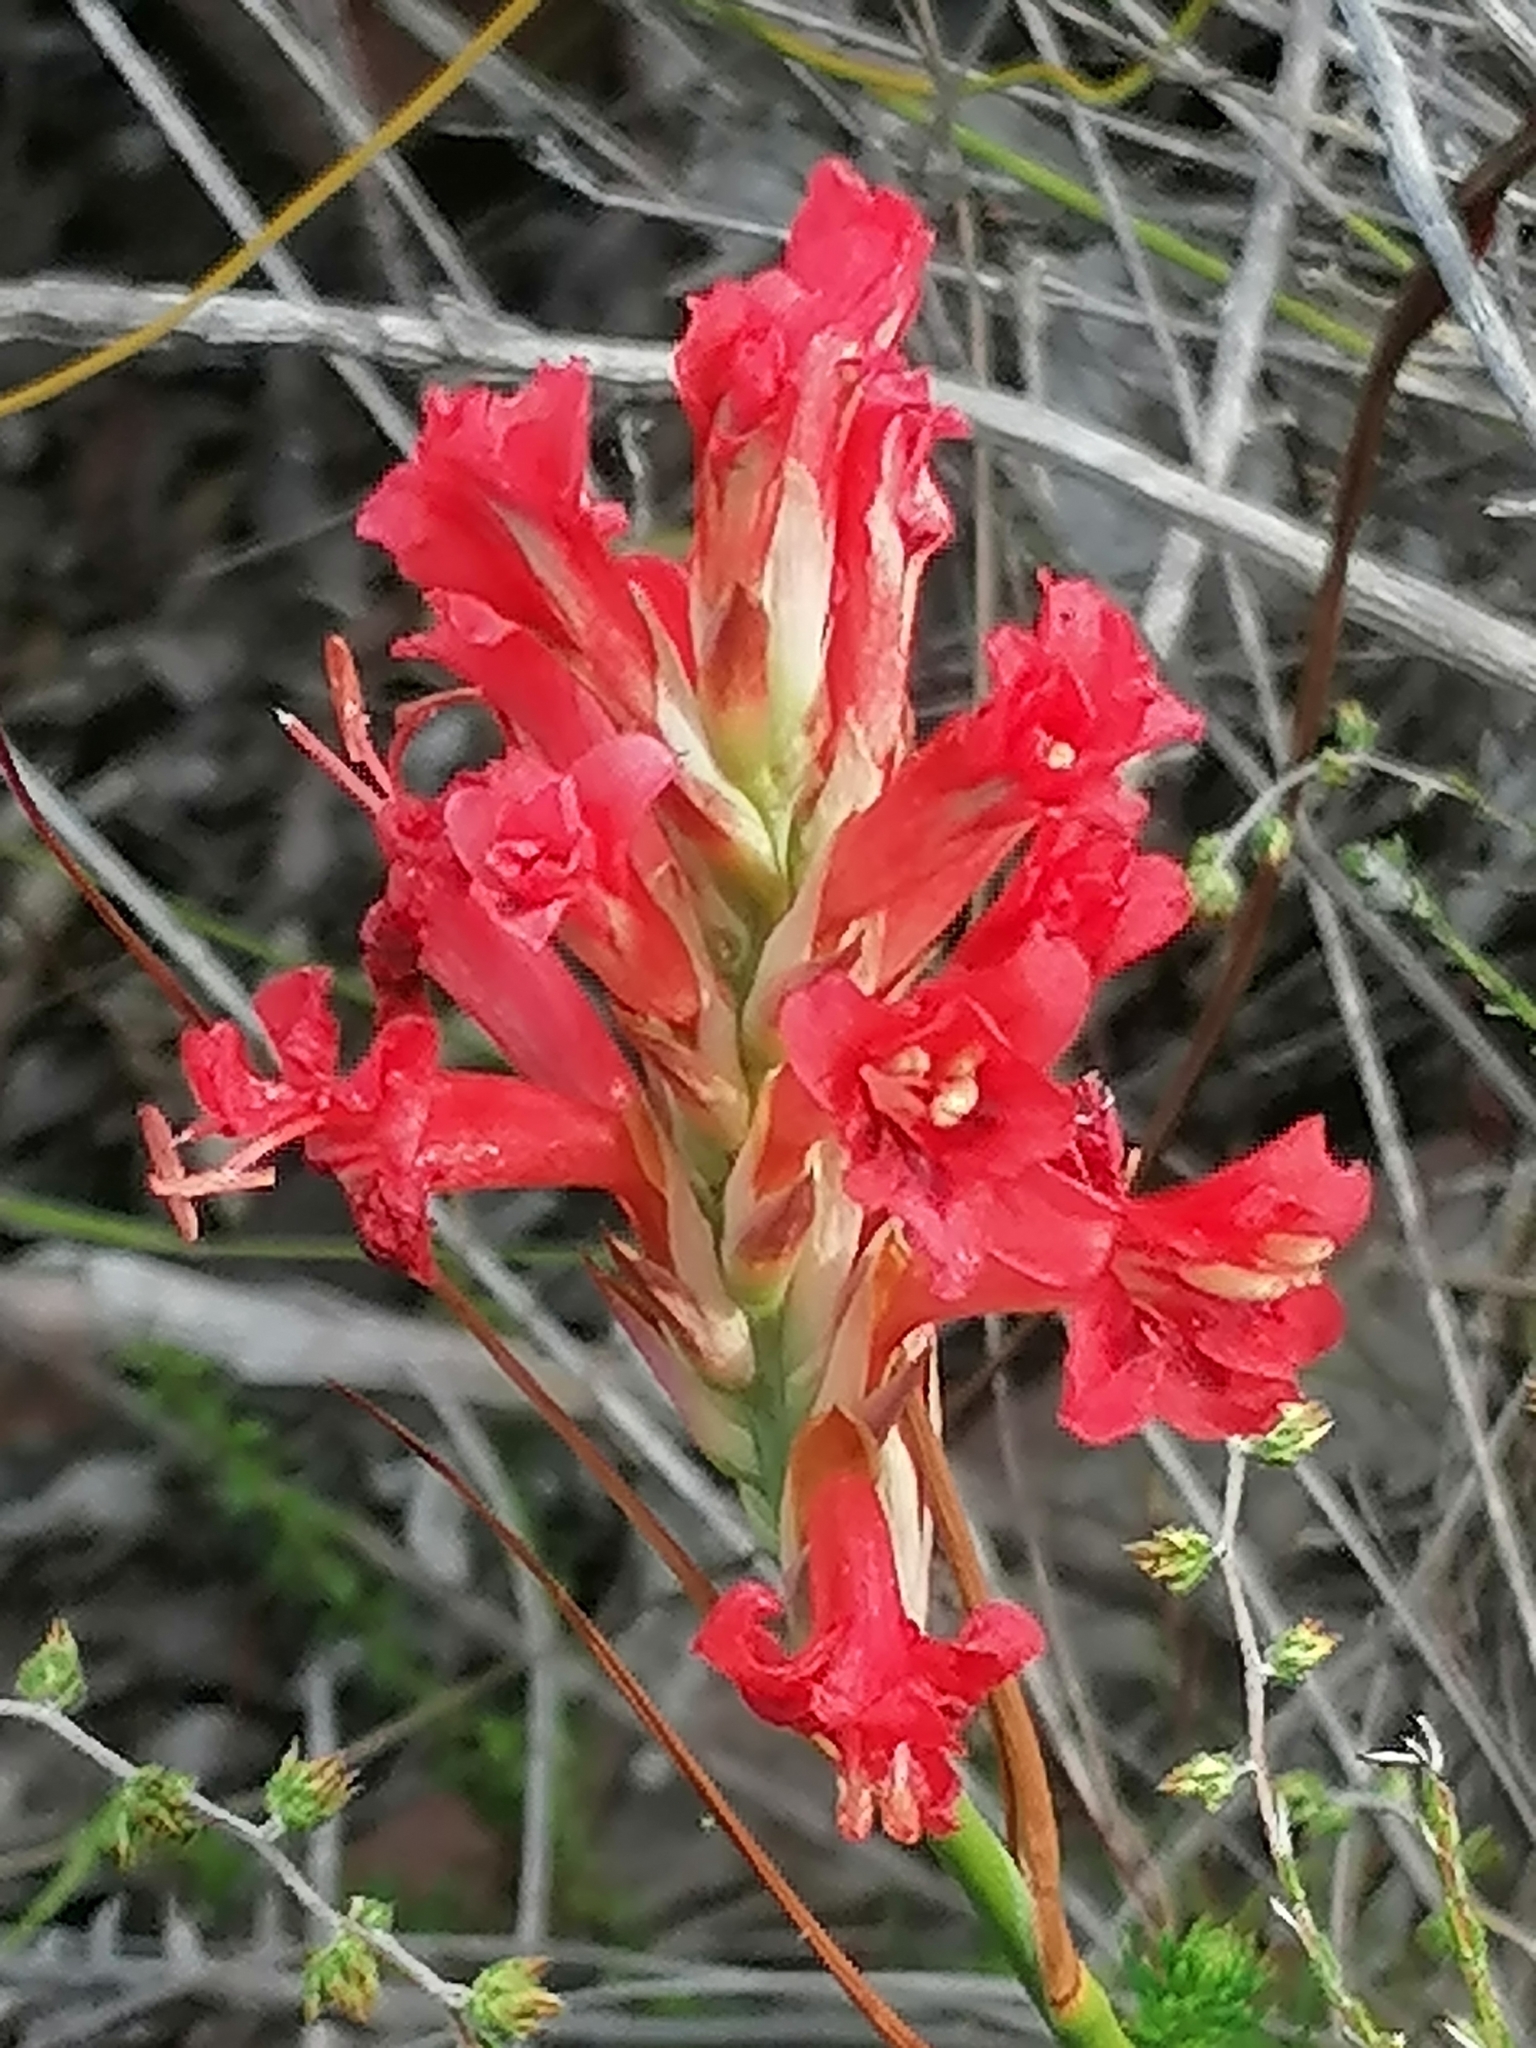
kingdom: Plantae
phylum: Tracheophyta
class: Liliopsida
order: Asparagales
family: Iridaceae
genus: Tritoniopsis
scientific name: Tritoniopsis triticea
